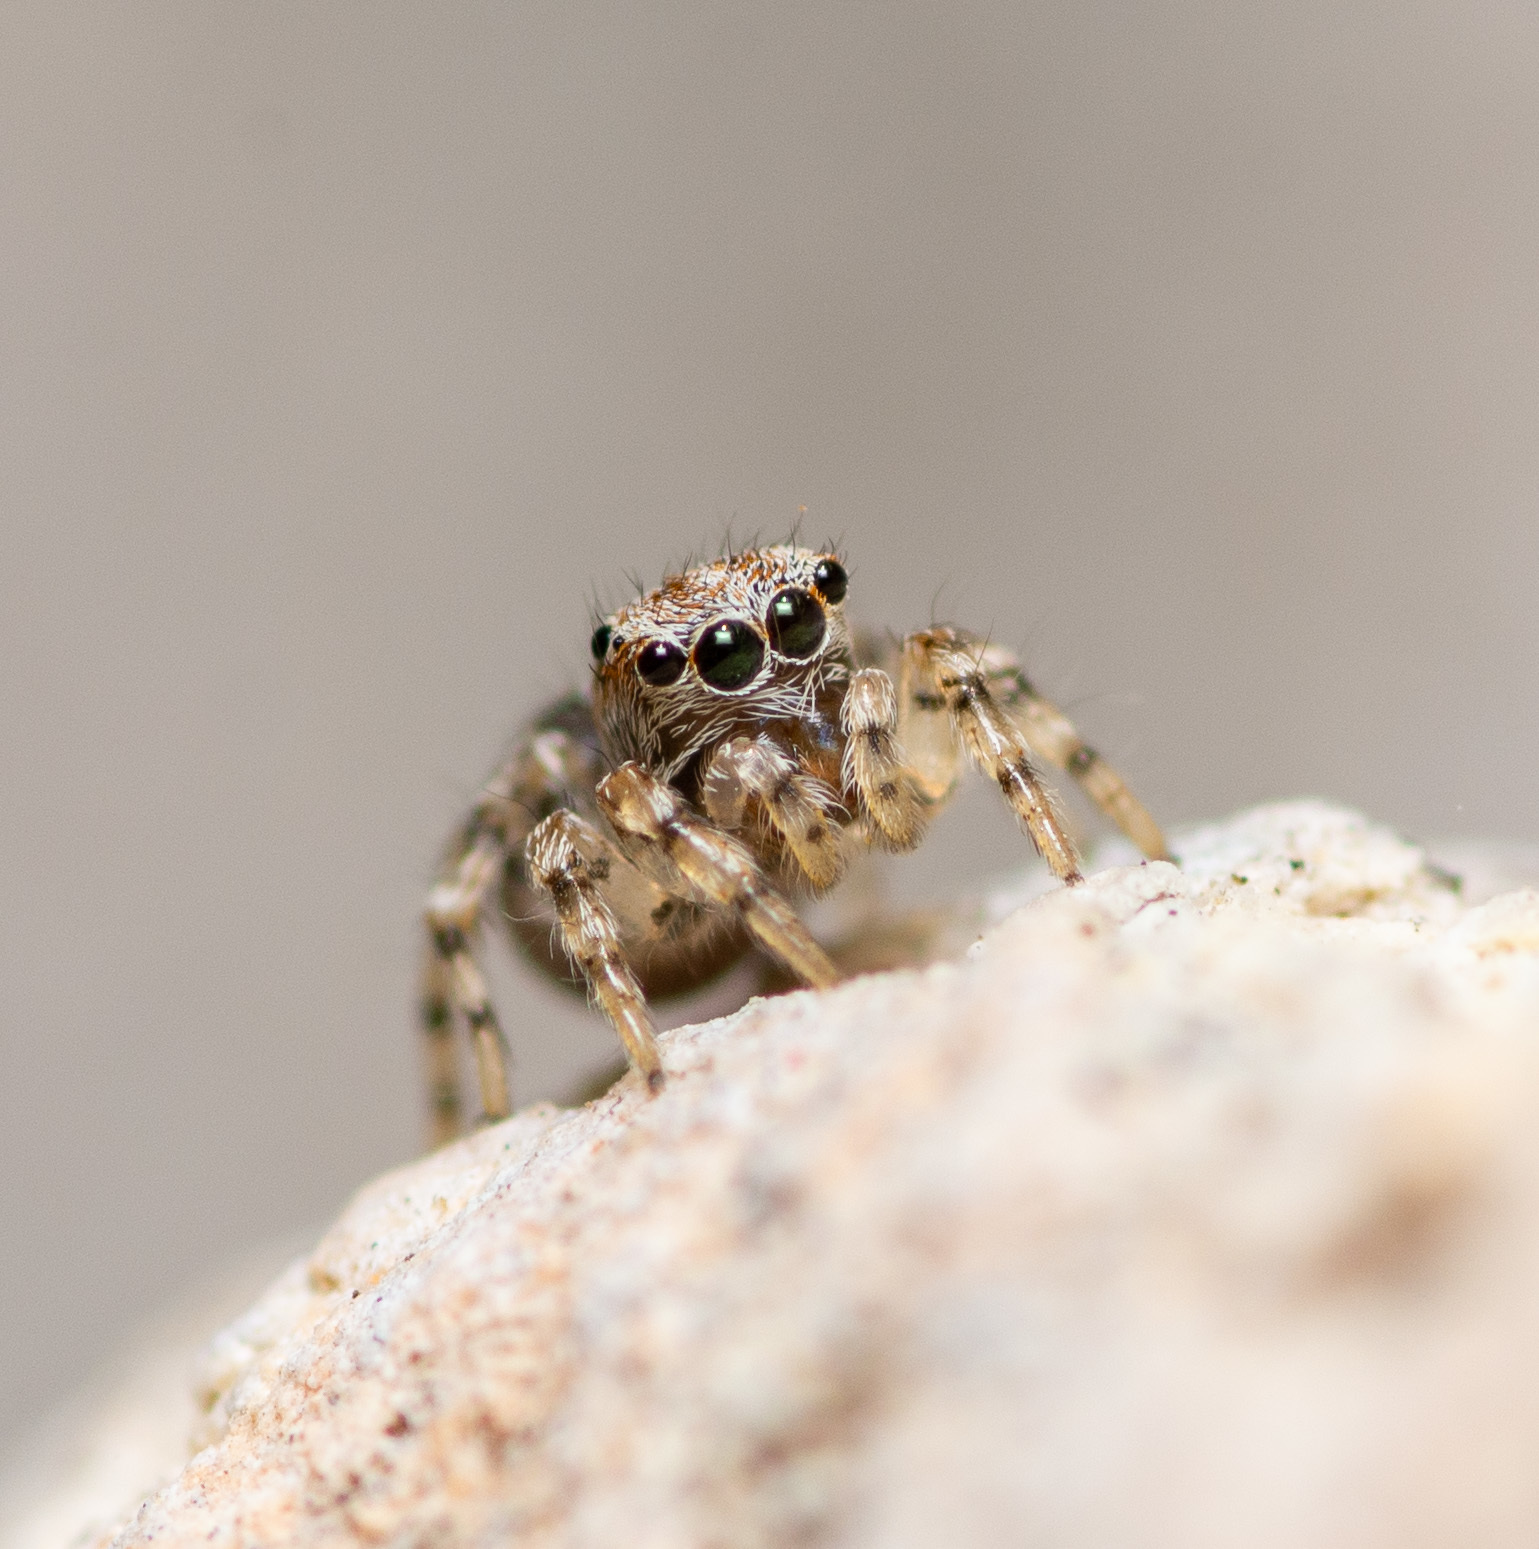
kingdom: Animalia
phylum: Arthropoda
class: Arachnida
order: Araneae
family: Salticidae
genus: Naphrys
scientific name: Naphrys pulex
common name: Flea jumping spider
